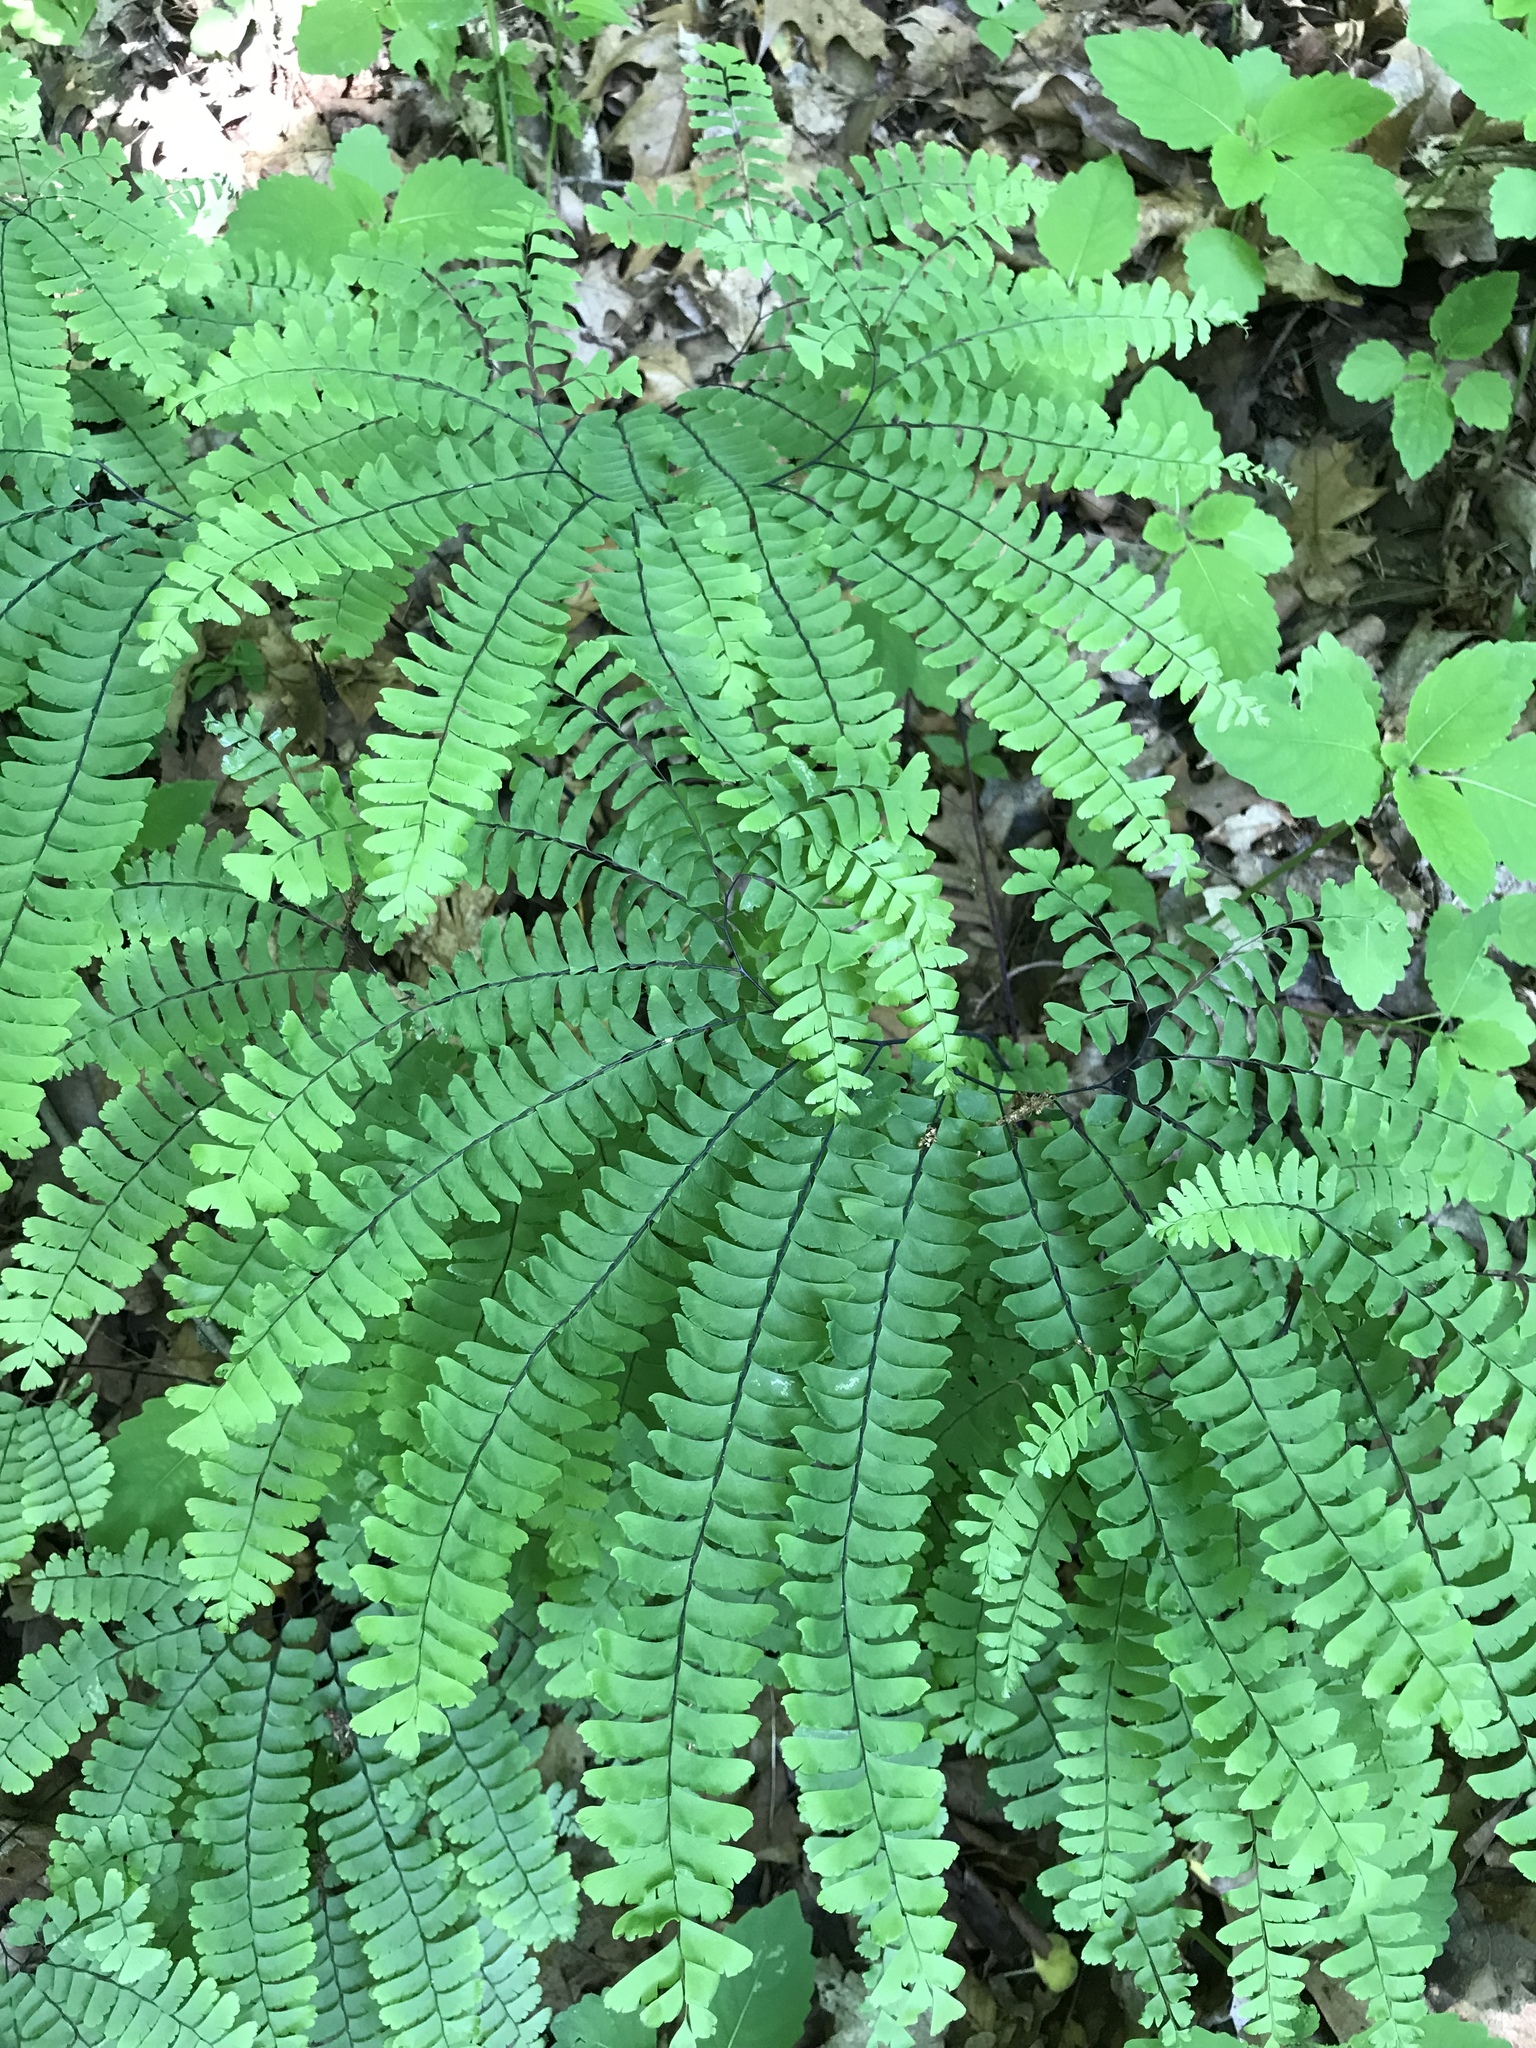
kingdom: Plantae
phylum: Tracheophyta
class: Polypodiopsida
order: Polypodiales
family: Pteridaceae
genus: Adiantum
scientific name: Adiantum pedatum
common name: Five-finger fern
